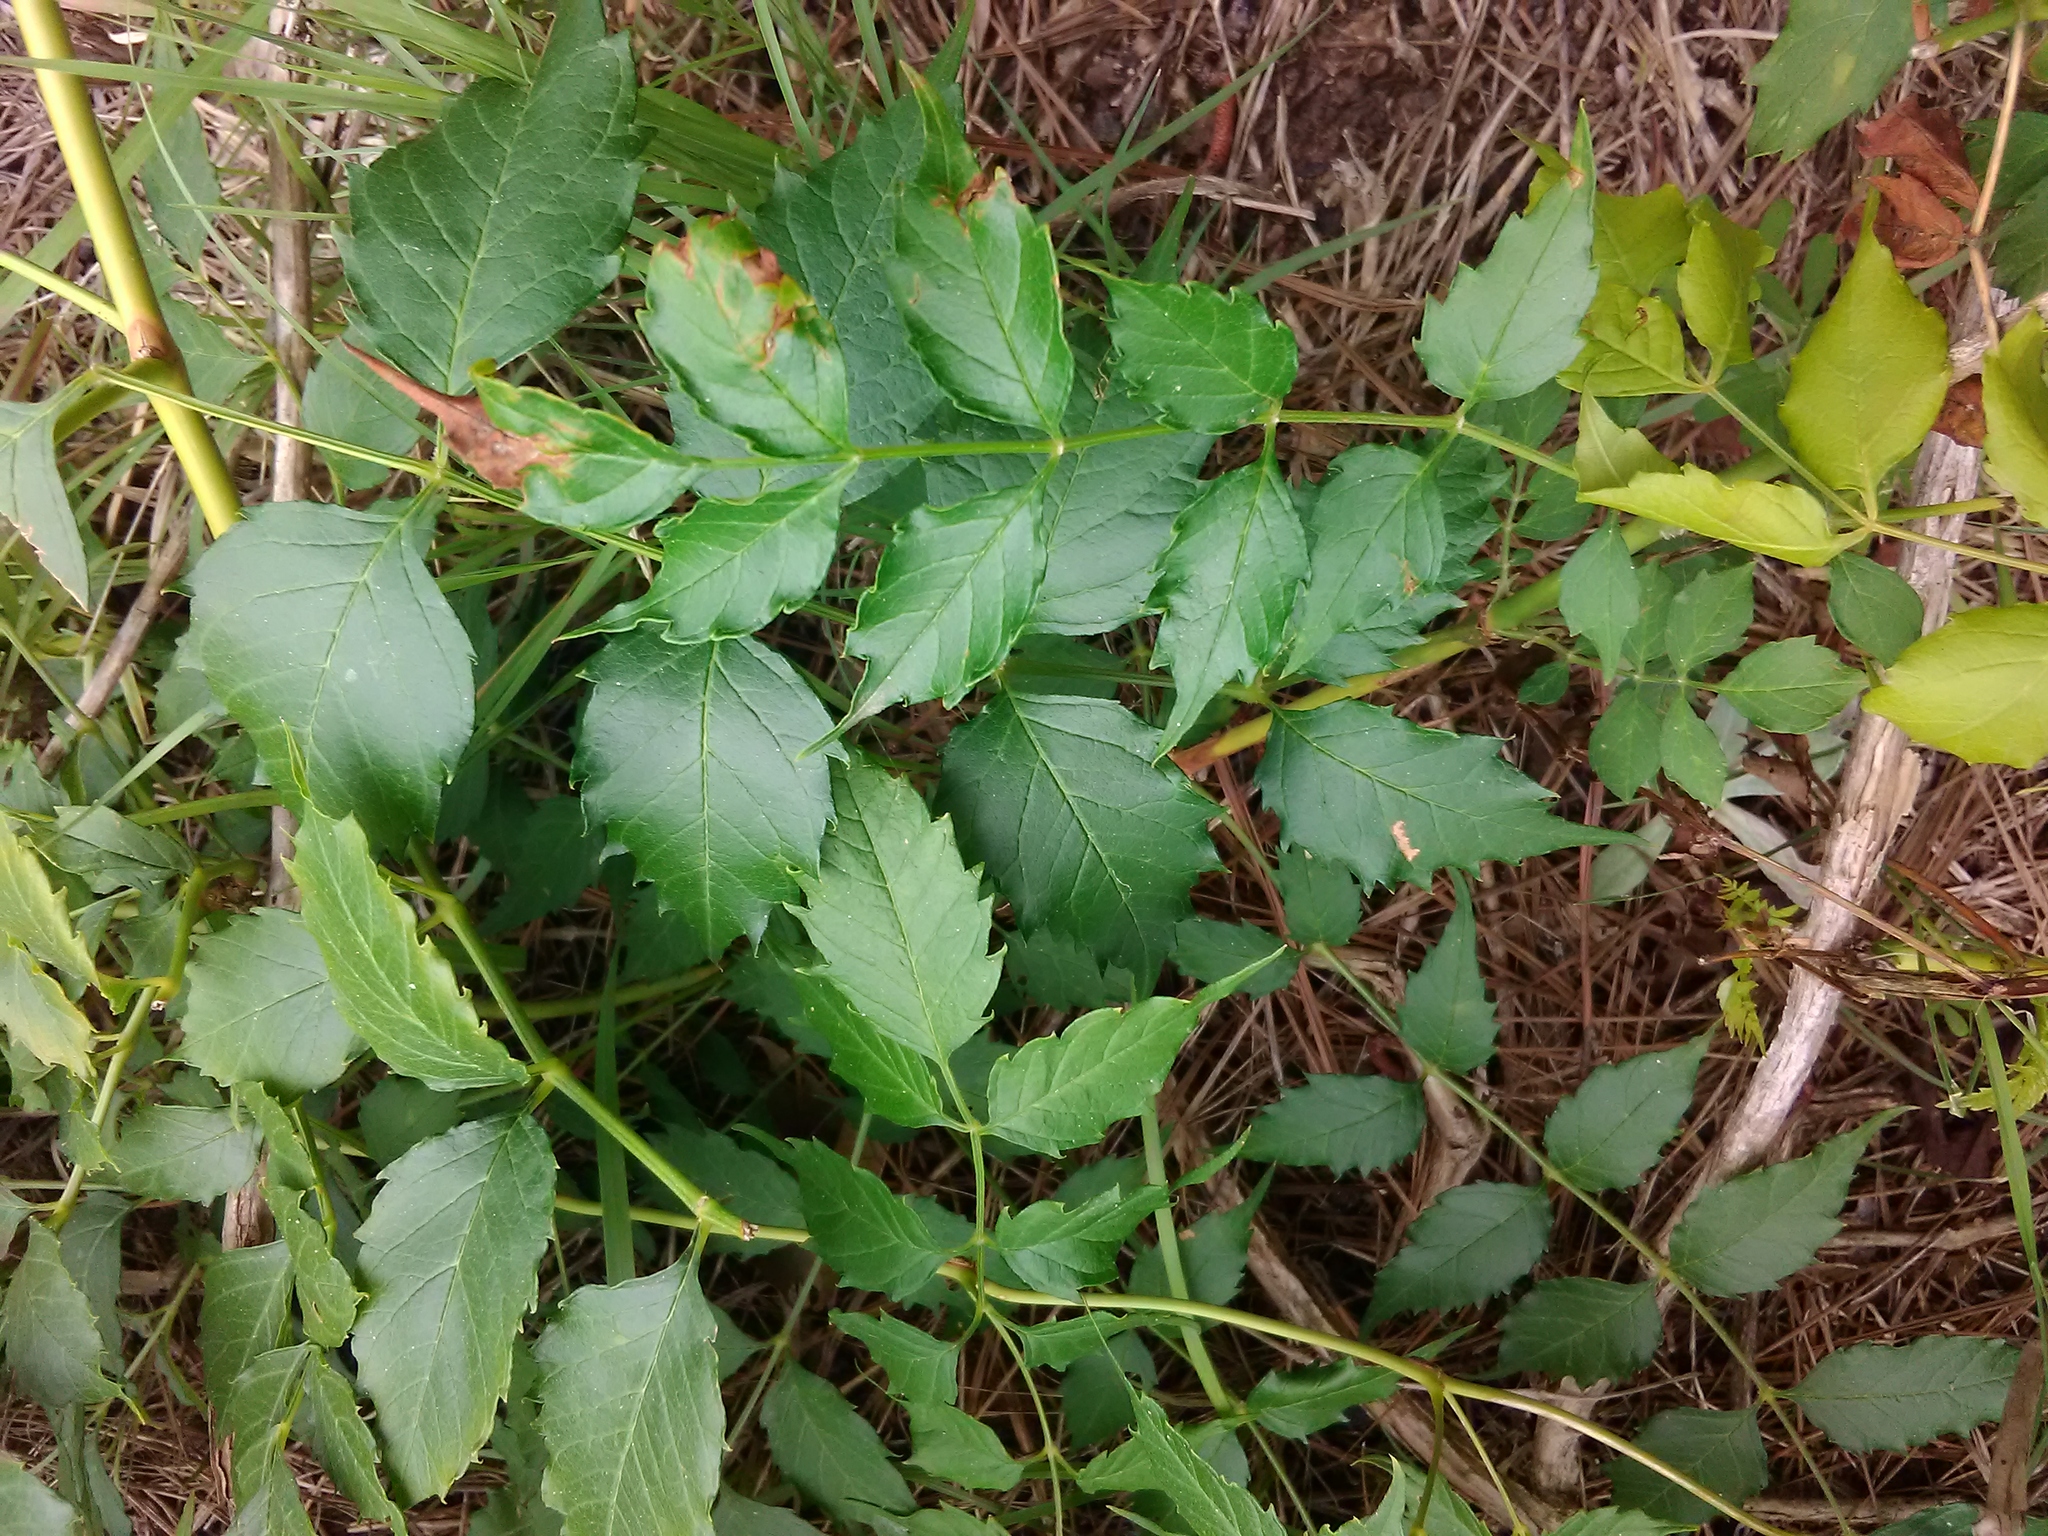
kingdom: Plantae
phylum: Tracheophyta
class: Magnoliopsida
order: Lamiales
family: Bignoniaceae
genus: Campsis
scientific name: Campsis radicans
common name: Trumpet-creeper
